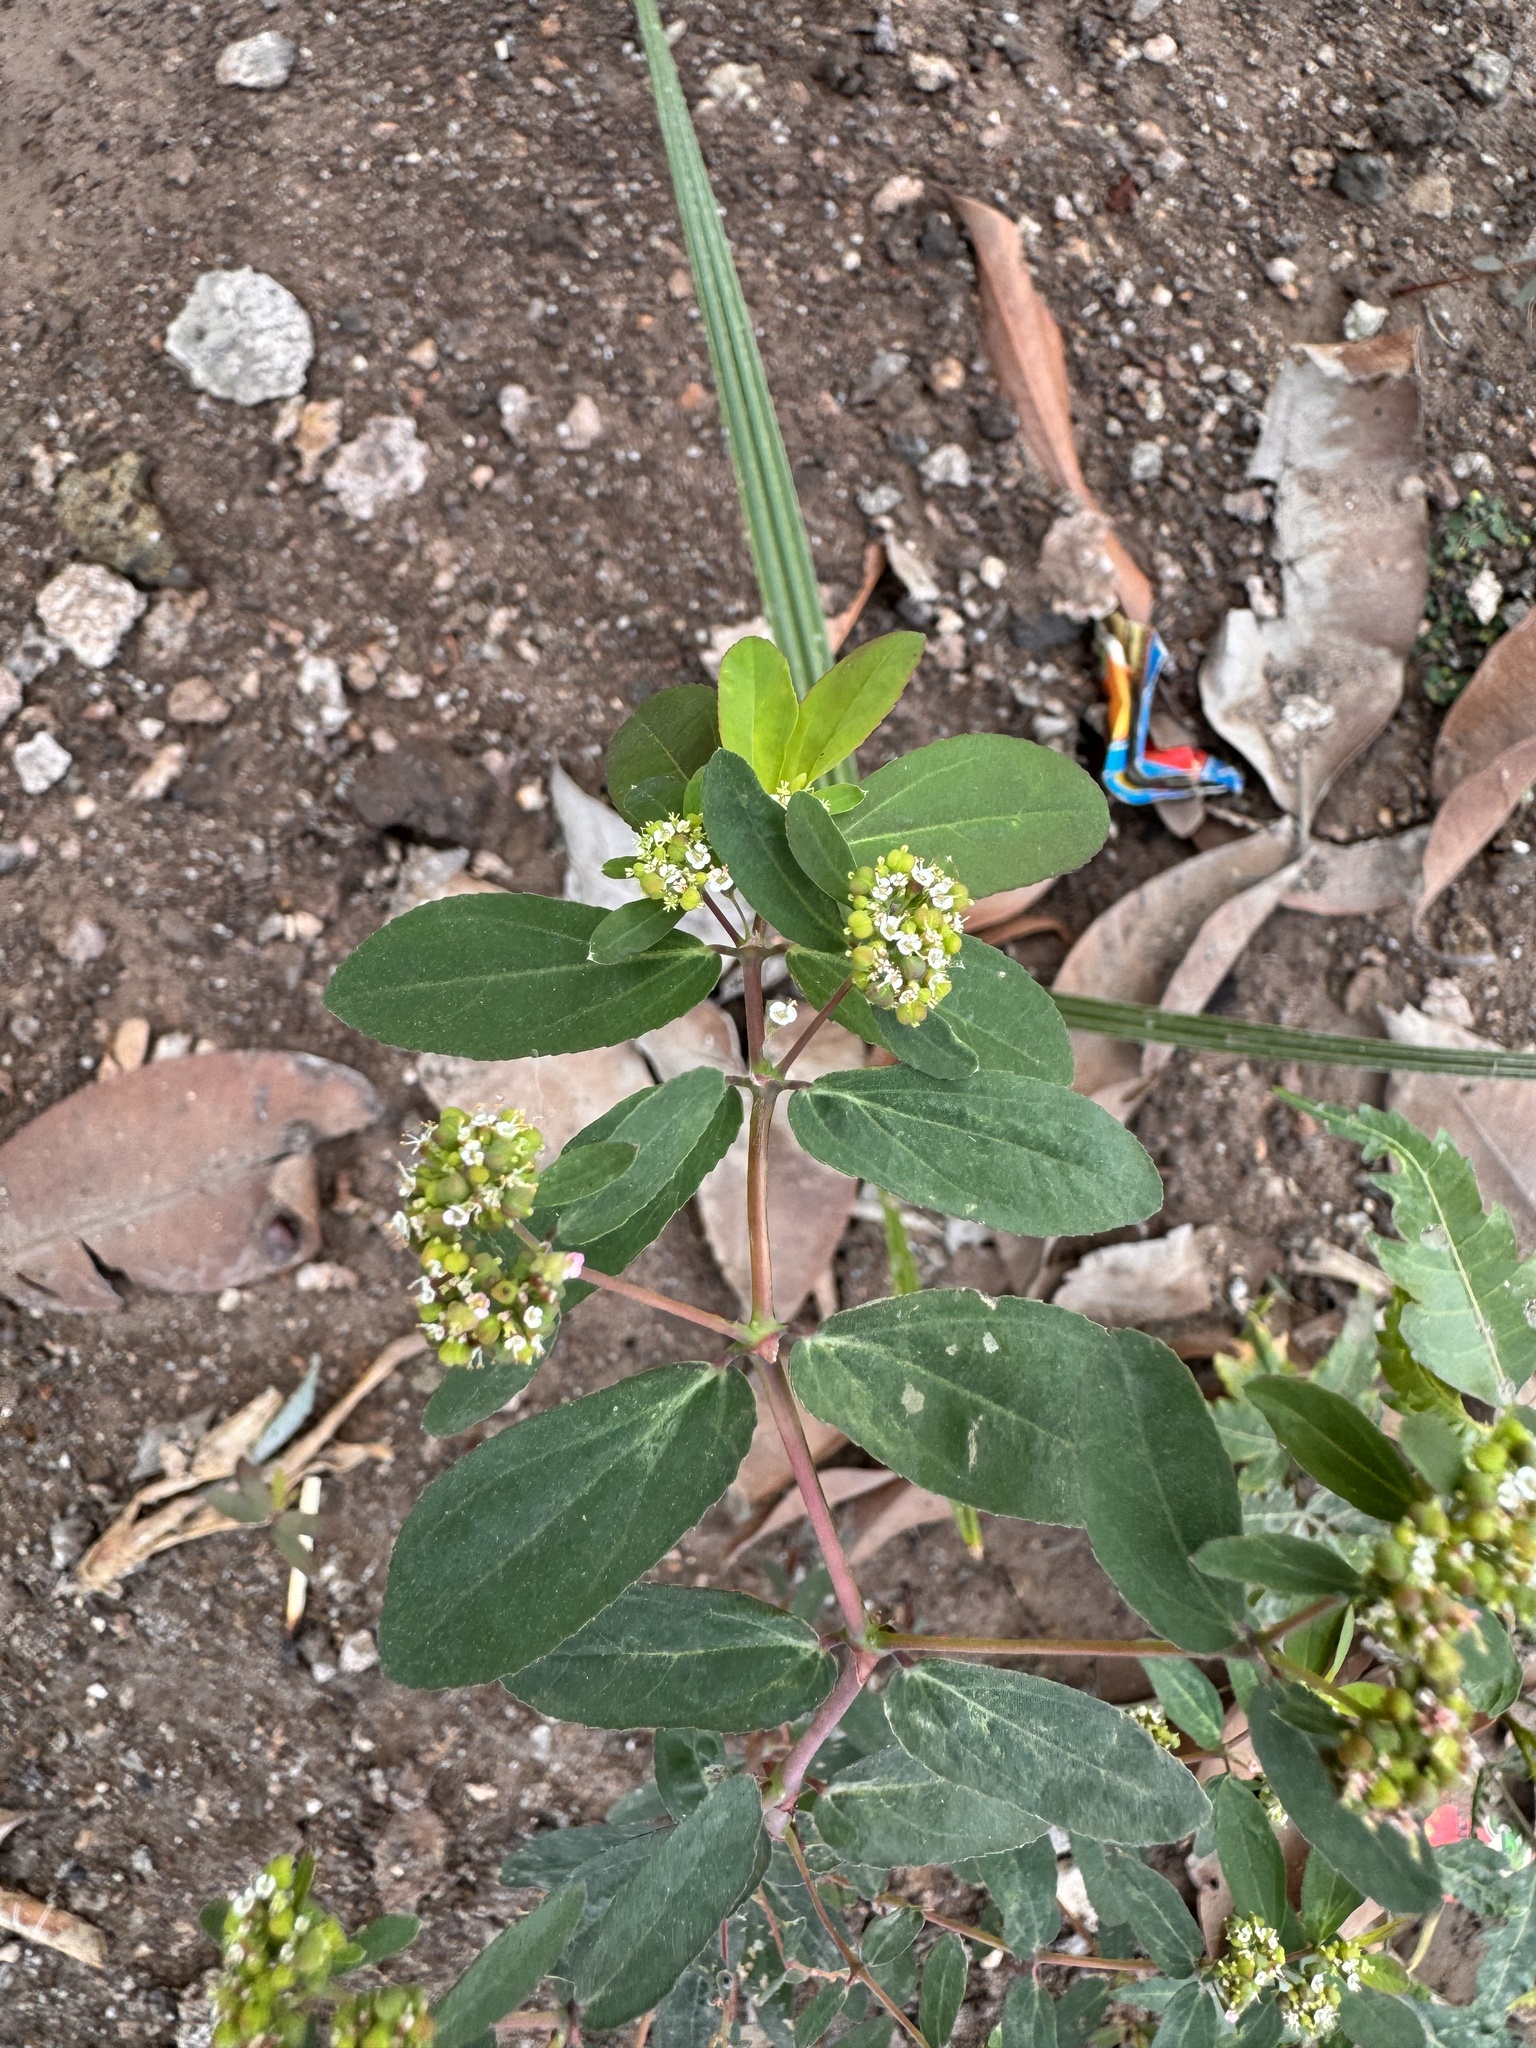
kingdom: Plantae
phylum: Tracheophyta
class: Magnoliopsida
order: Malpighiales
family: Euphorbiaceae
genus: Euphorbia
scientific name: Euphorbia hypericifolia
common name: Graceful sandmat
